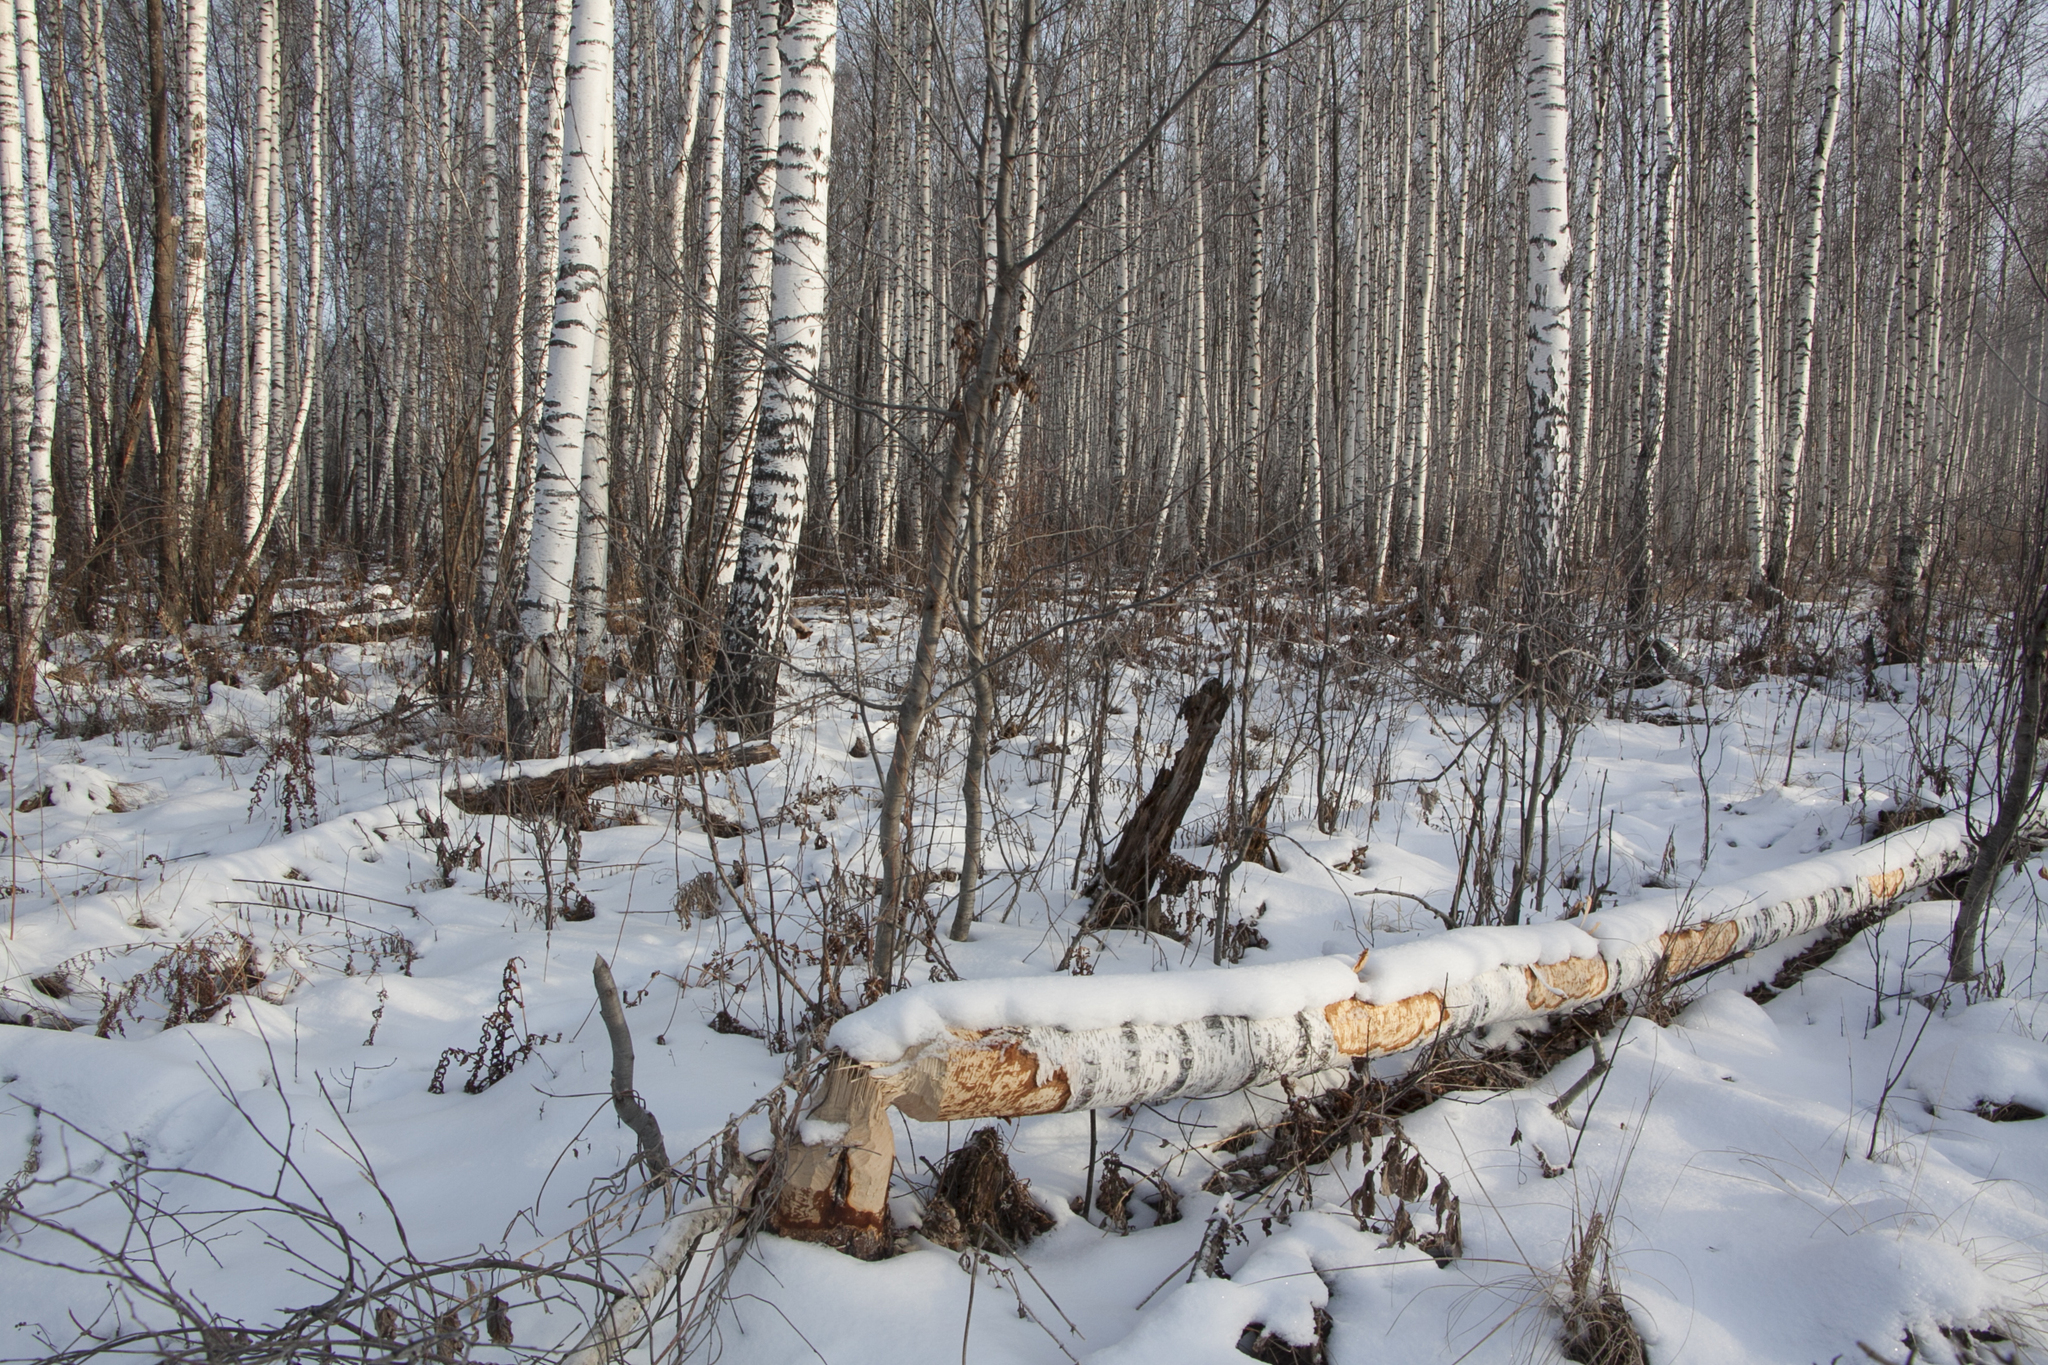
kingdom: Animalia
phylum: Chordata
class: Mammalia
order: Rodentia
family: Castoridae
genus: Castor
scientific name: Castor fiber
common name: Eurasian beaver
